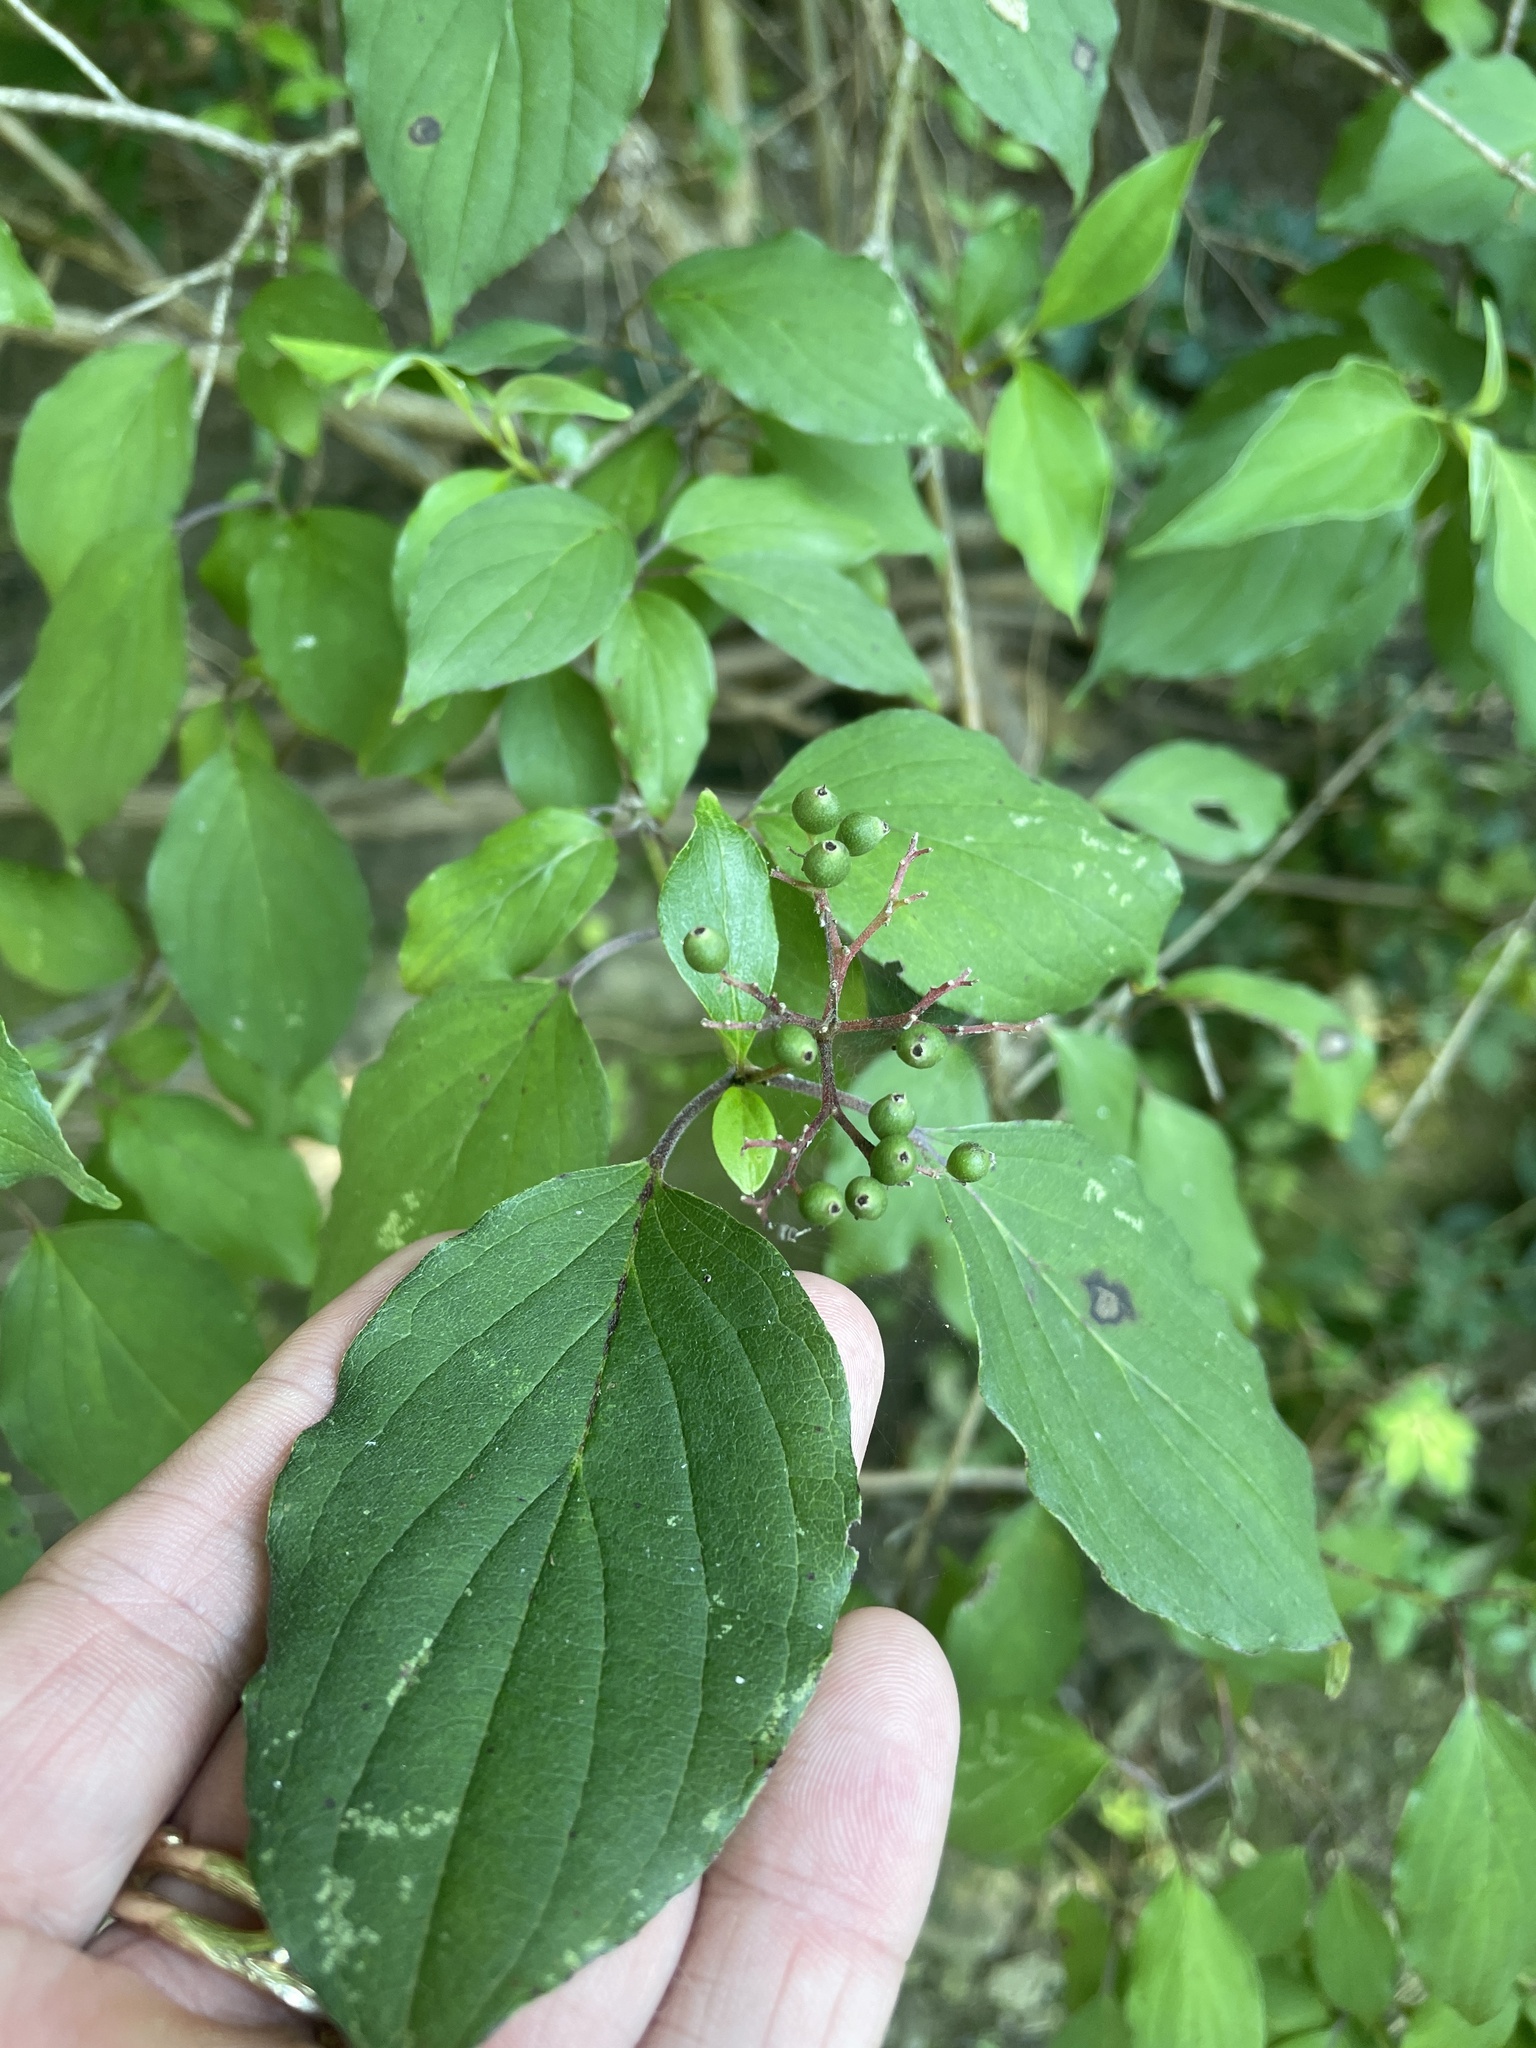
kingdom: Plantae
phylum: Tracheophyta
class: Magnoliopsida
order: Cornales
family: Cornaceae
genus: Cornus
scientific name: Cornus drummondii
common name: Rough-leaf dogwood
